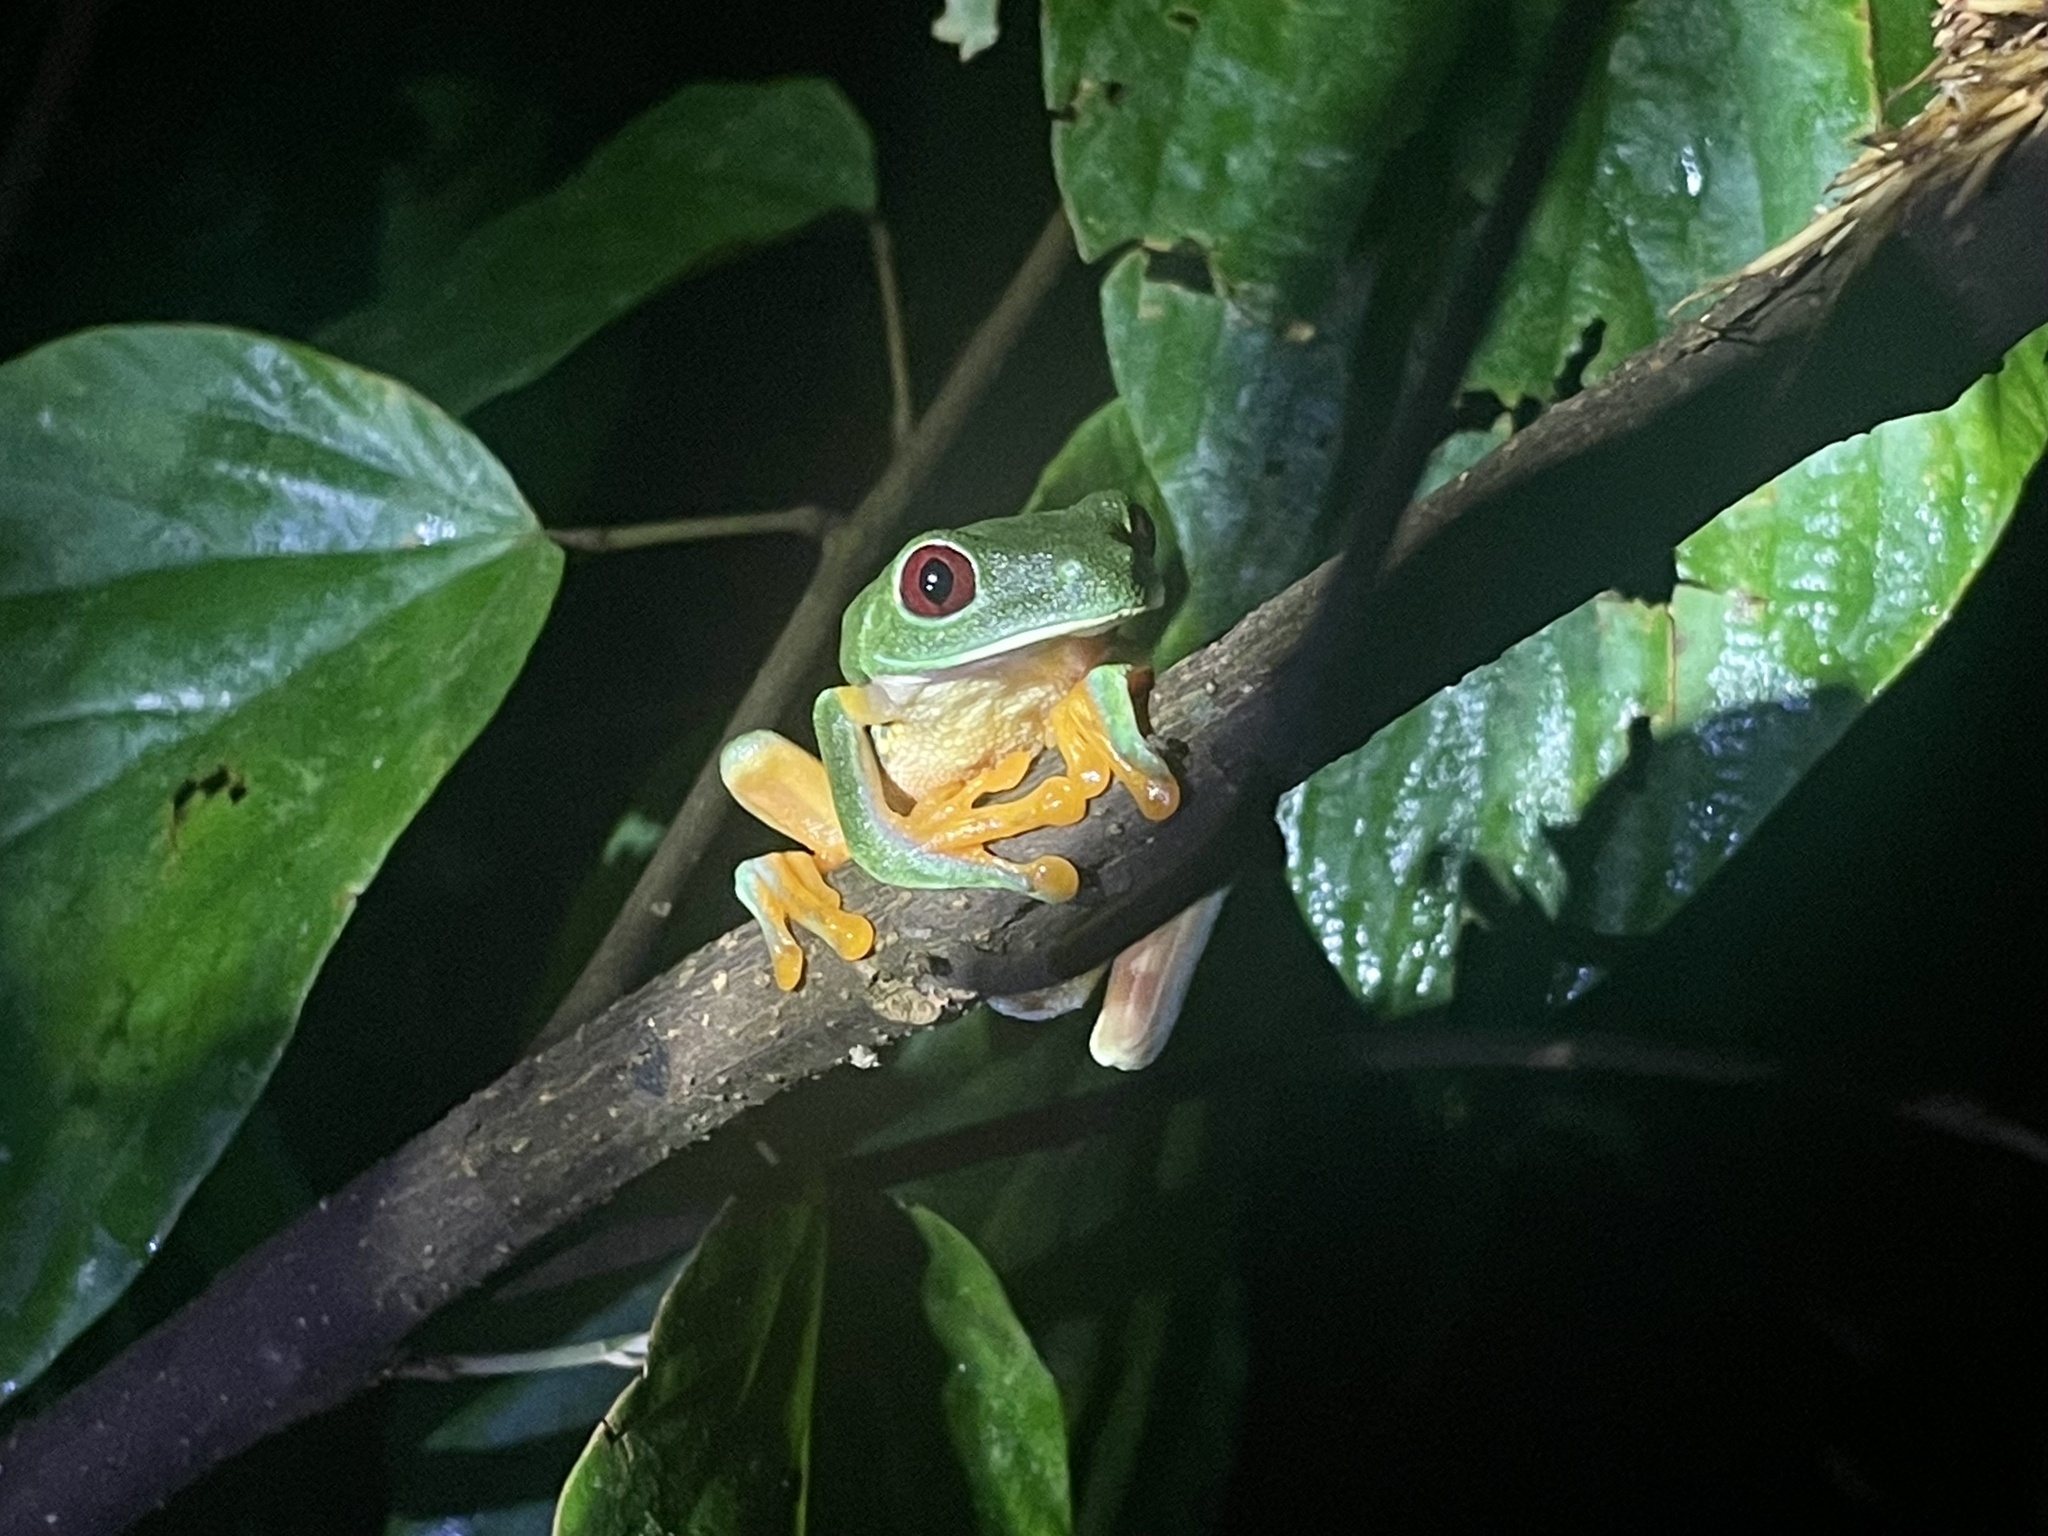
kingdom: Animalia
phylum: Chordata
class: Amphibia
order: Anura
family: Phyllomedusidae
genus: Agalychnis
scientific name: Agalychnis callidryas
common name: Red-eyed treefrog
